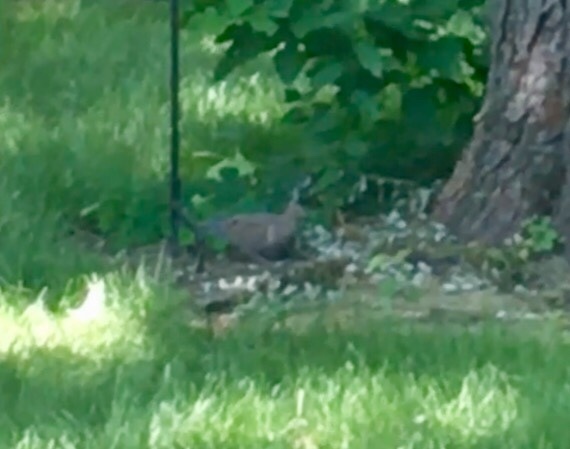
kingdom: Animalia
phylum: Chordata
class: Aves
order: Columbiformes
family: Columbidae
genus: Zenaida
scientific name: Zenaida macroura
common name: Mourning dove
